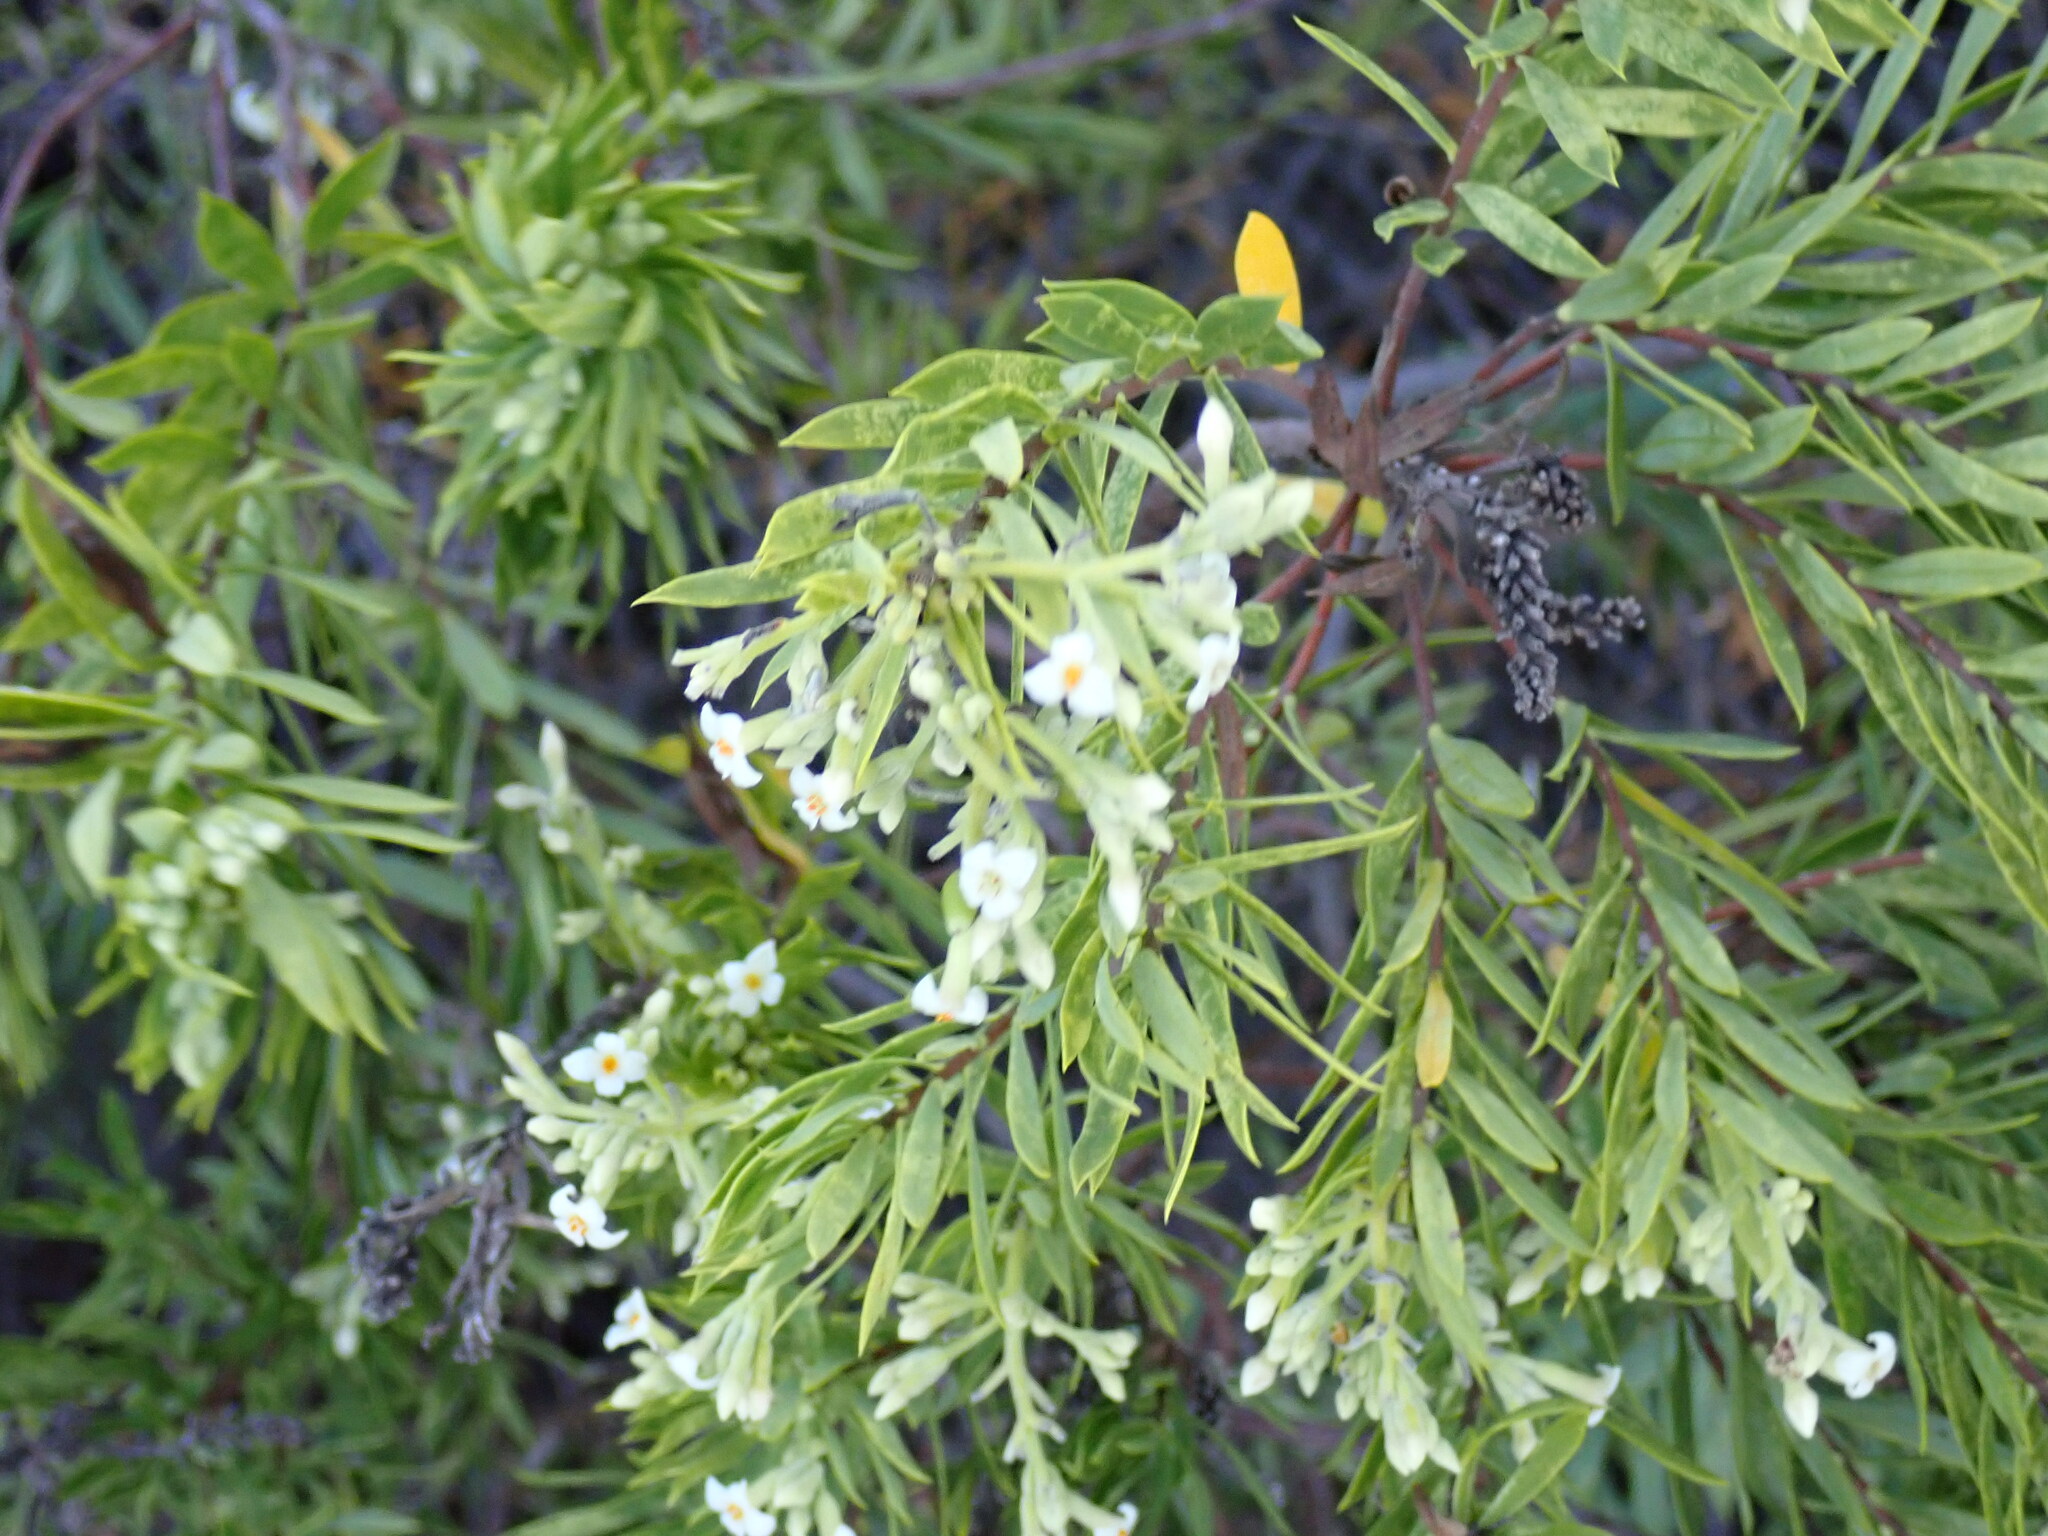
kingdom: Plantae
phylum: Tracheophyta
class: Magnoliopsida
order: Malvales
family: Thymelaeaceae
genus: Daphne
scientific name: Daphne gnidium
